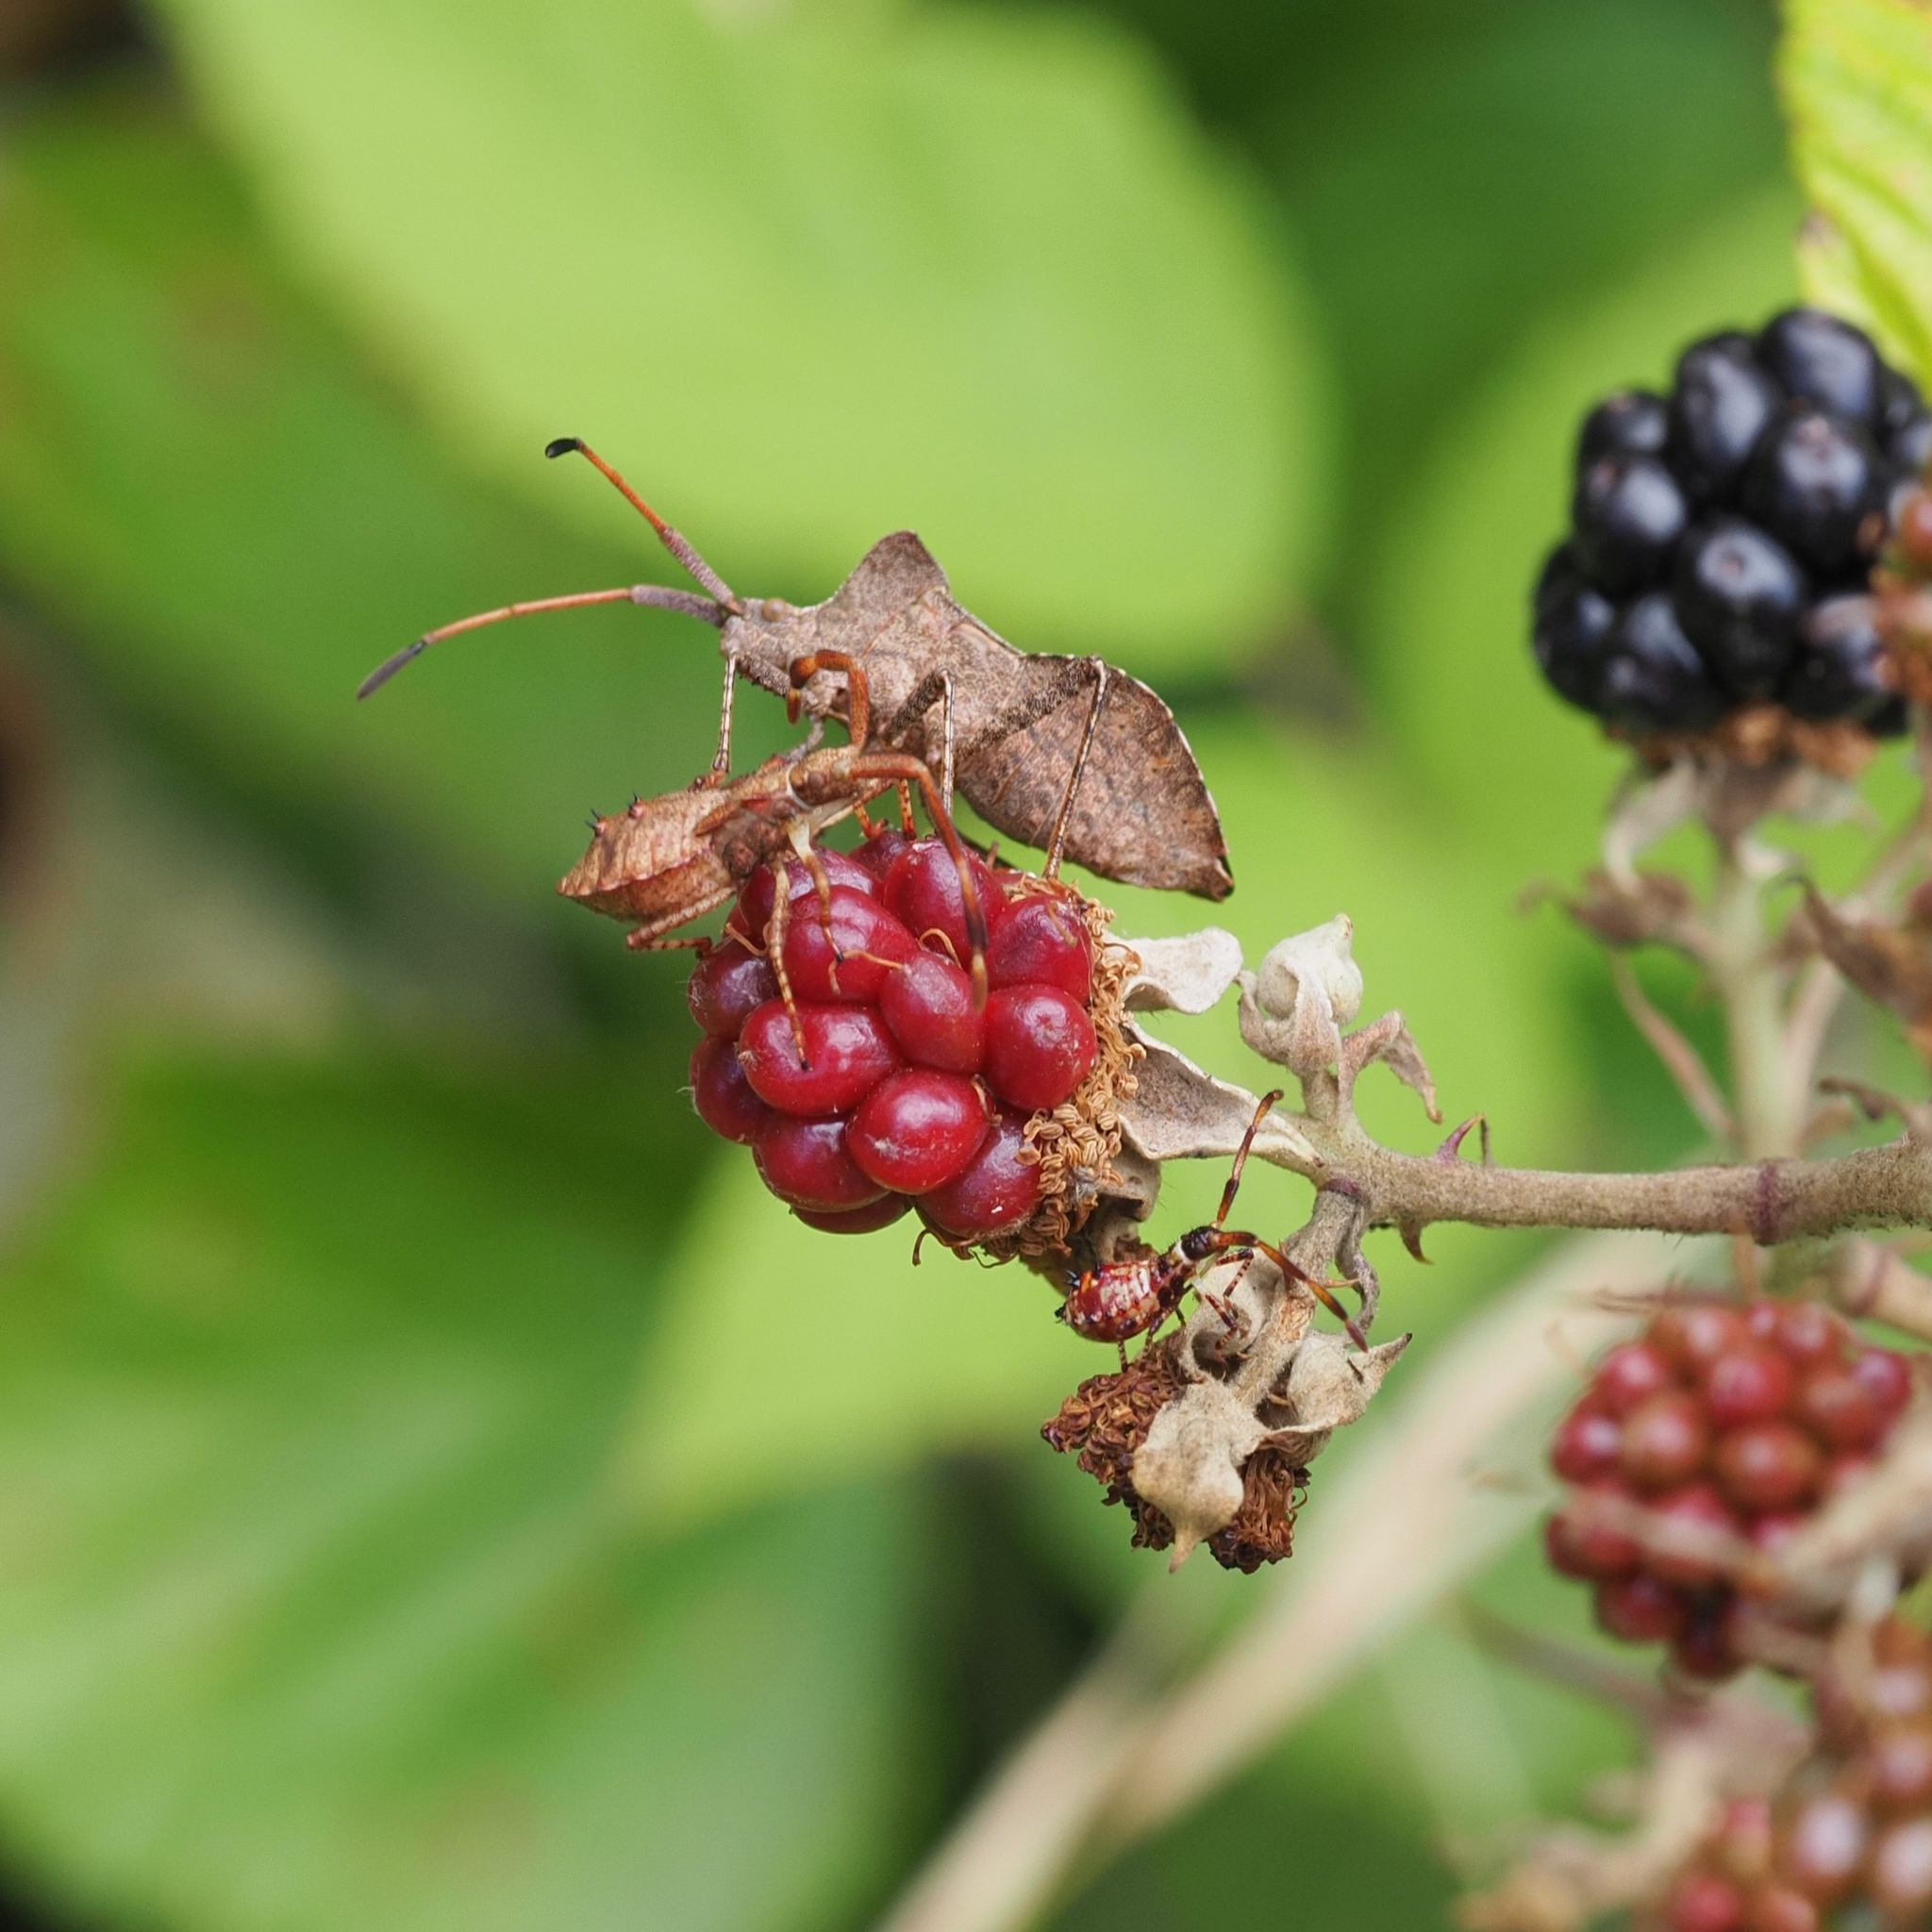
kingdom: Animalia
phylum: Arthropoda
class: Insecta
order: Hemiptera
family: Coreidae
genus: Coreus
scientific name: Coreus marginatus
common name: Dock bug
